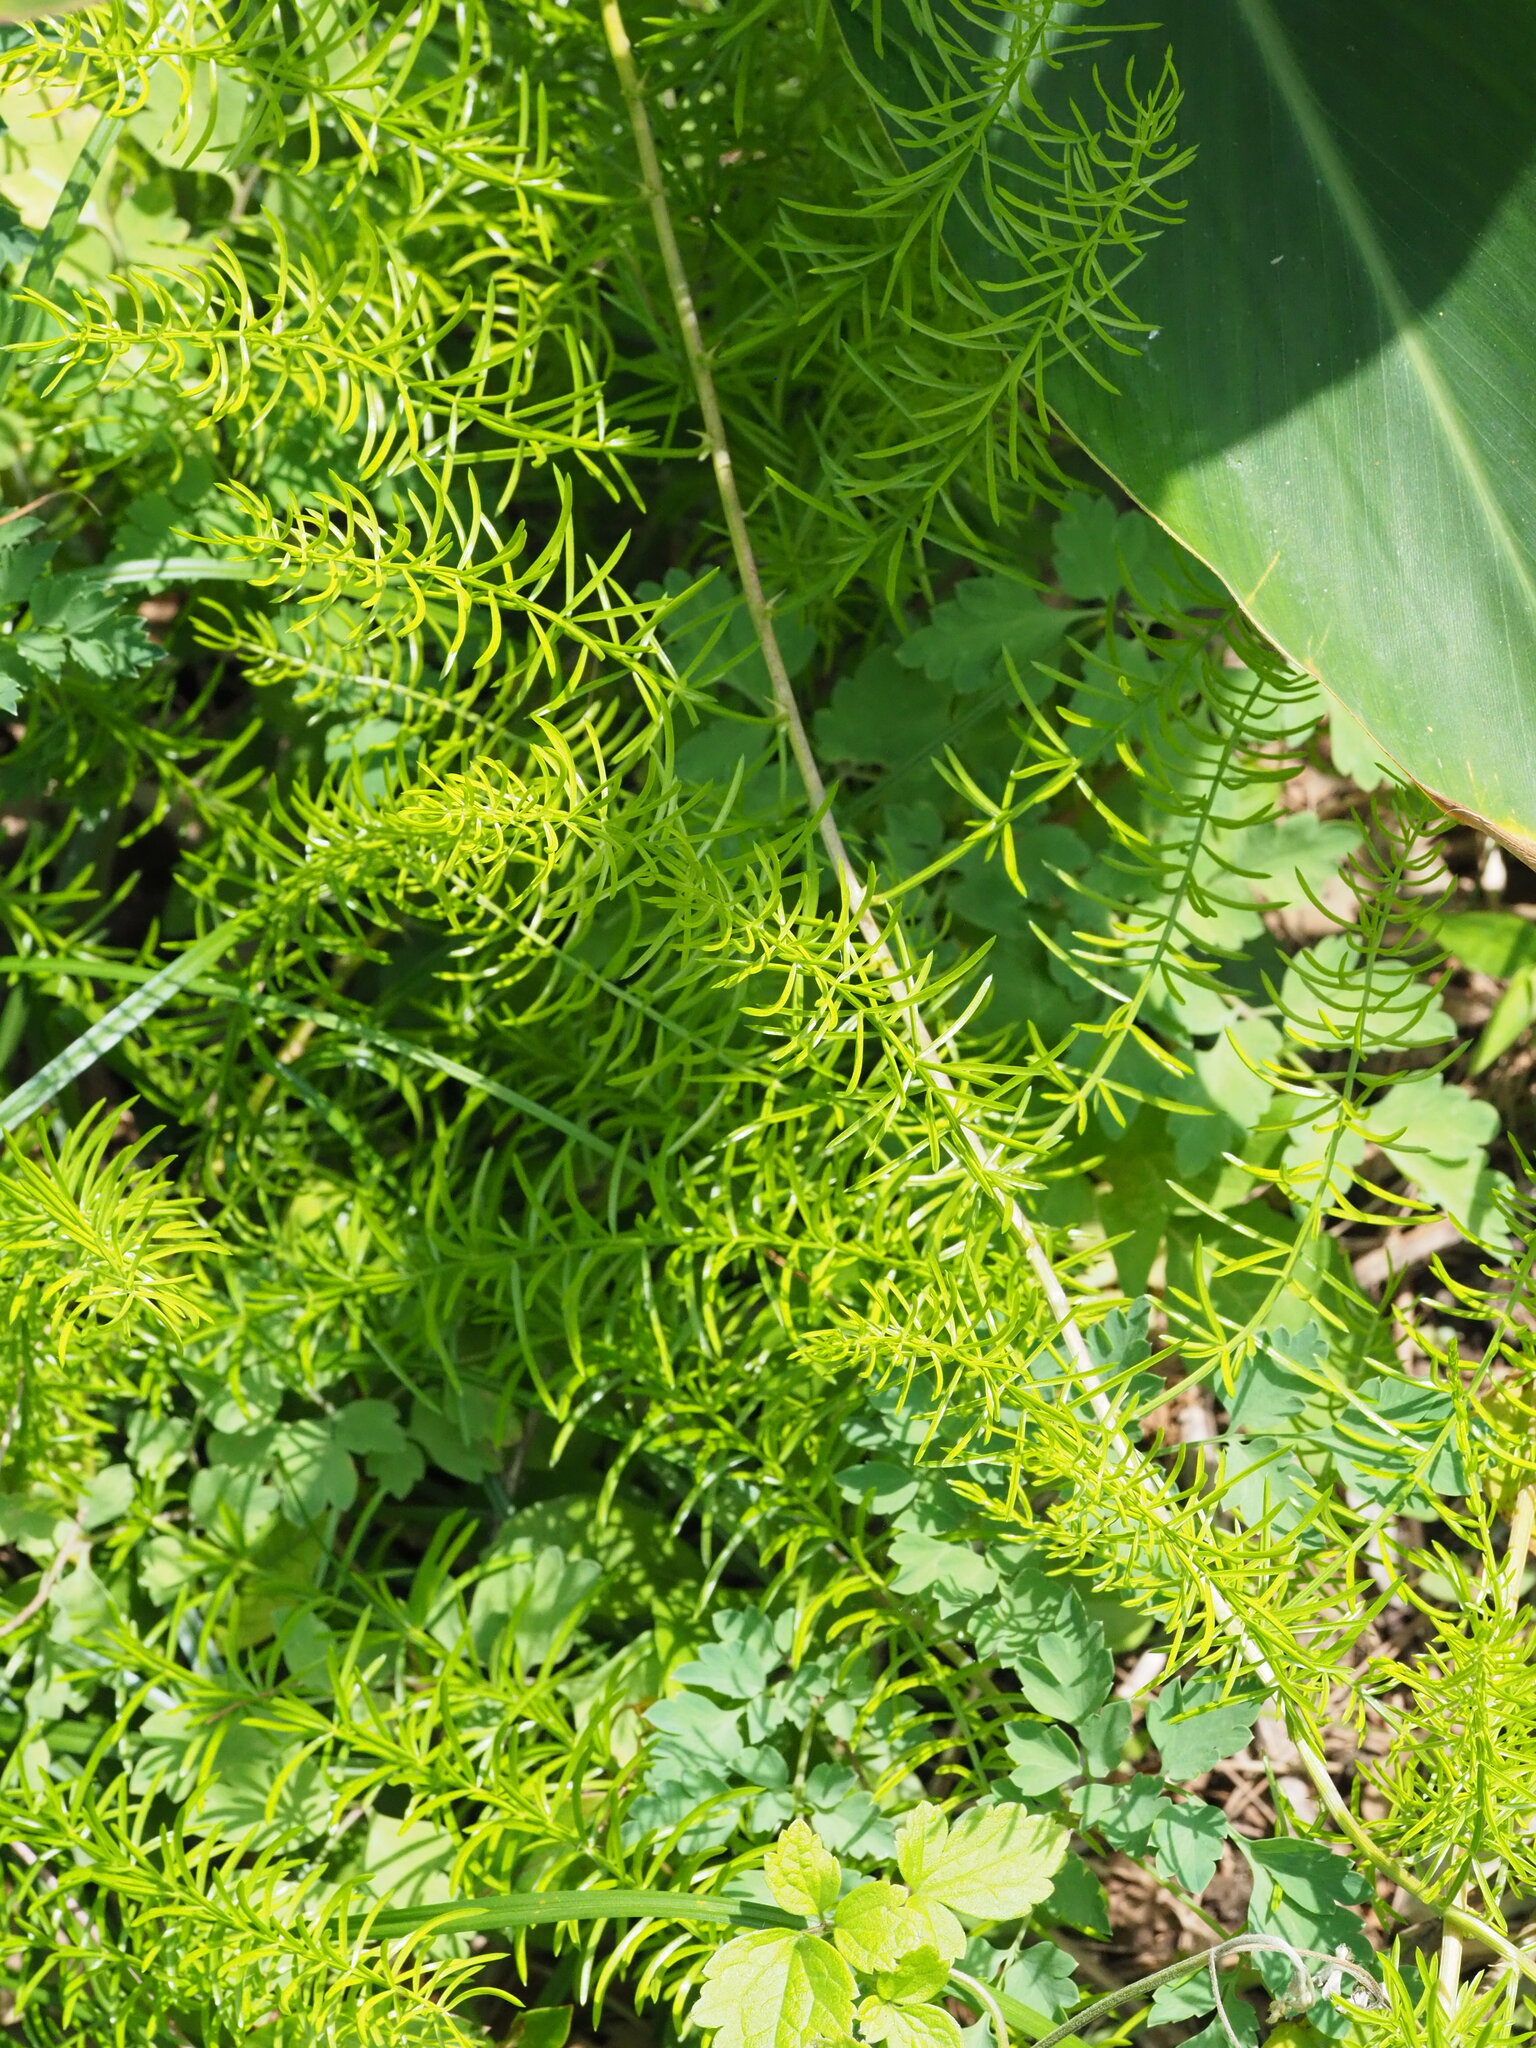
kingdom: Plantae
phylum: Tracheophyta
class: Liliopsida
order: Asparagales
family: Asparagaceae
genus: Asparagus
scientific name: Asparagus cochinchinensis
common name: Chinese asparagus
